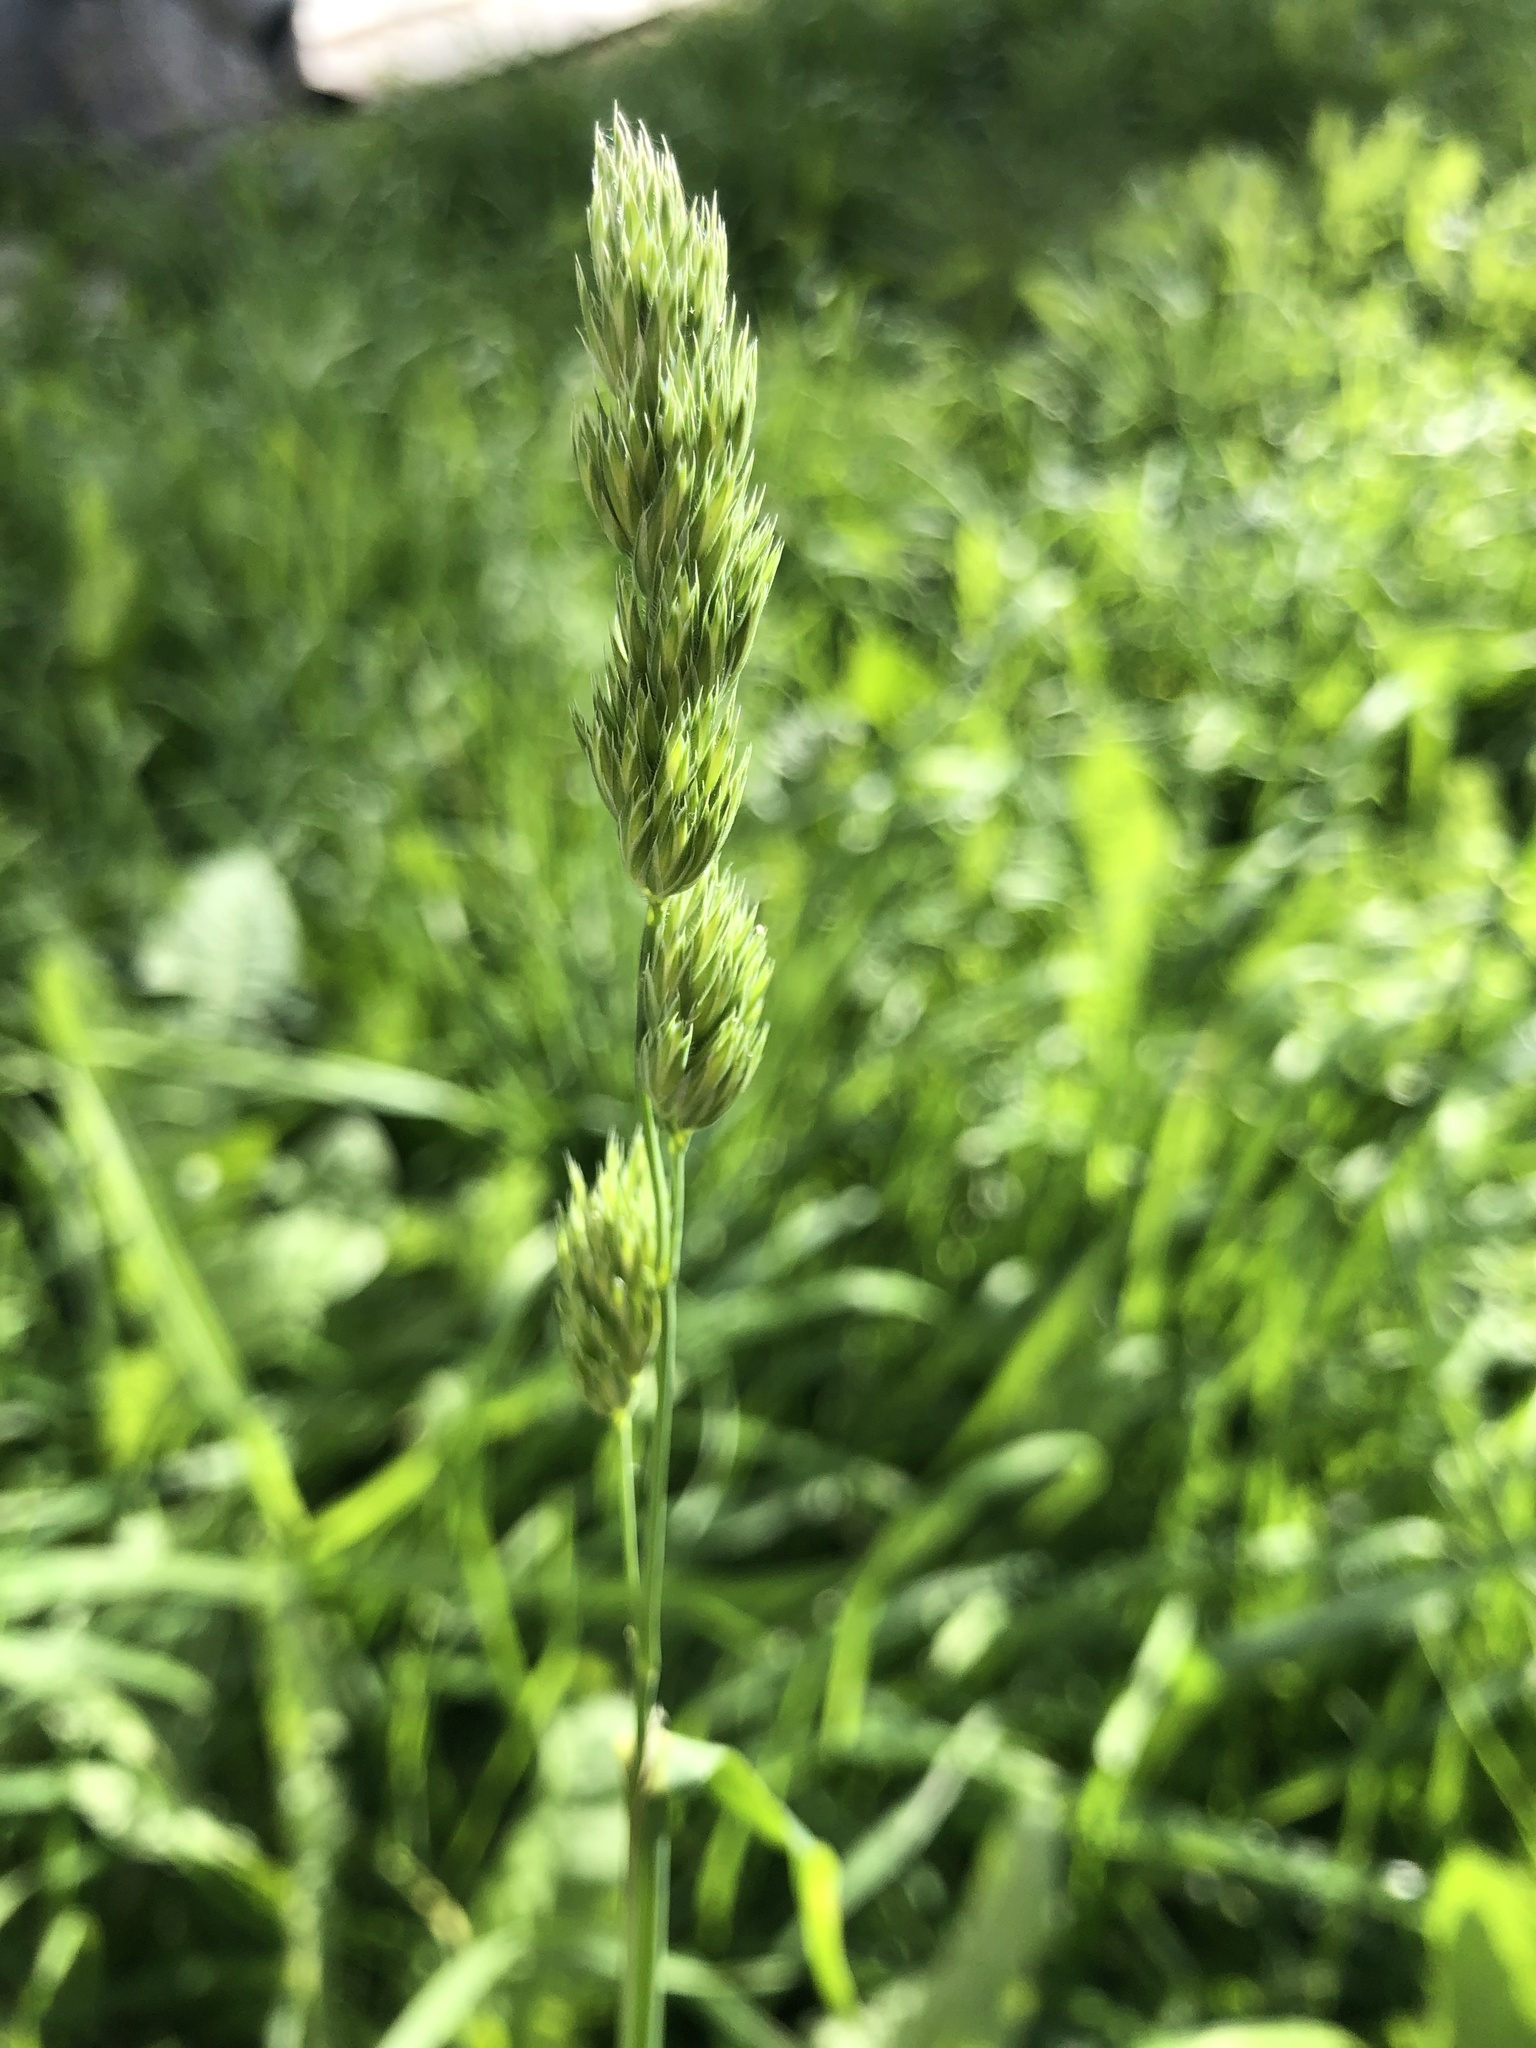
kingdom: Plantae
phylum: Tracheophyta
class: Liliopsida
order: Poales
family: Poaceae
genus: Dactylis
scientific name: Dactylis glomerata
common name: Orchardgrass
